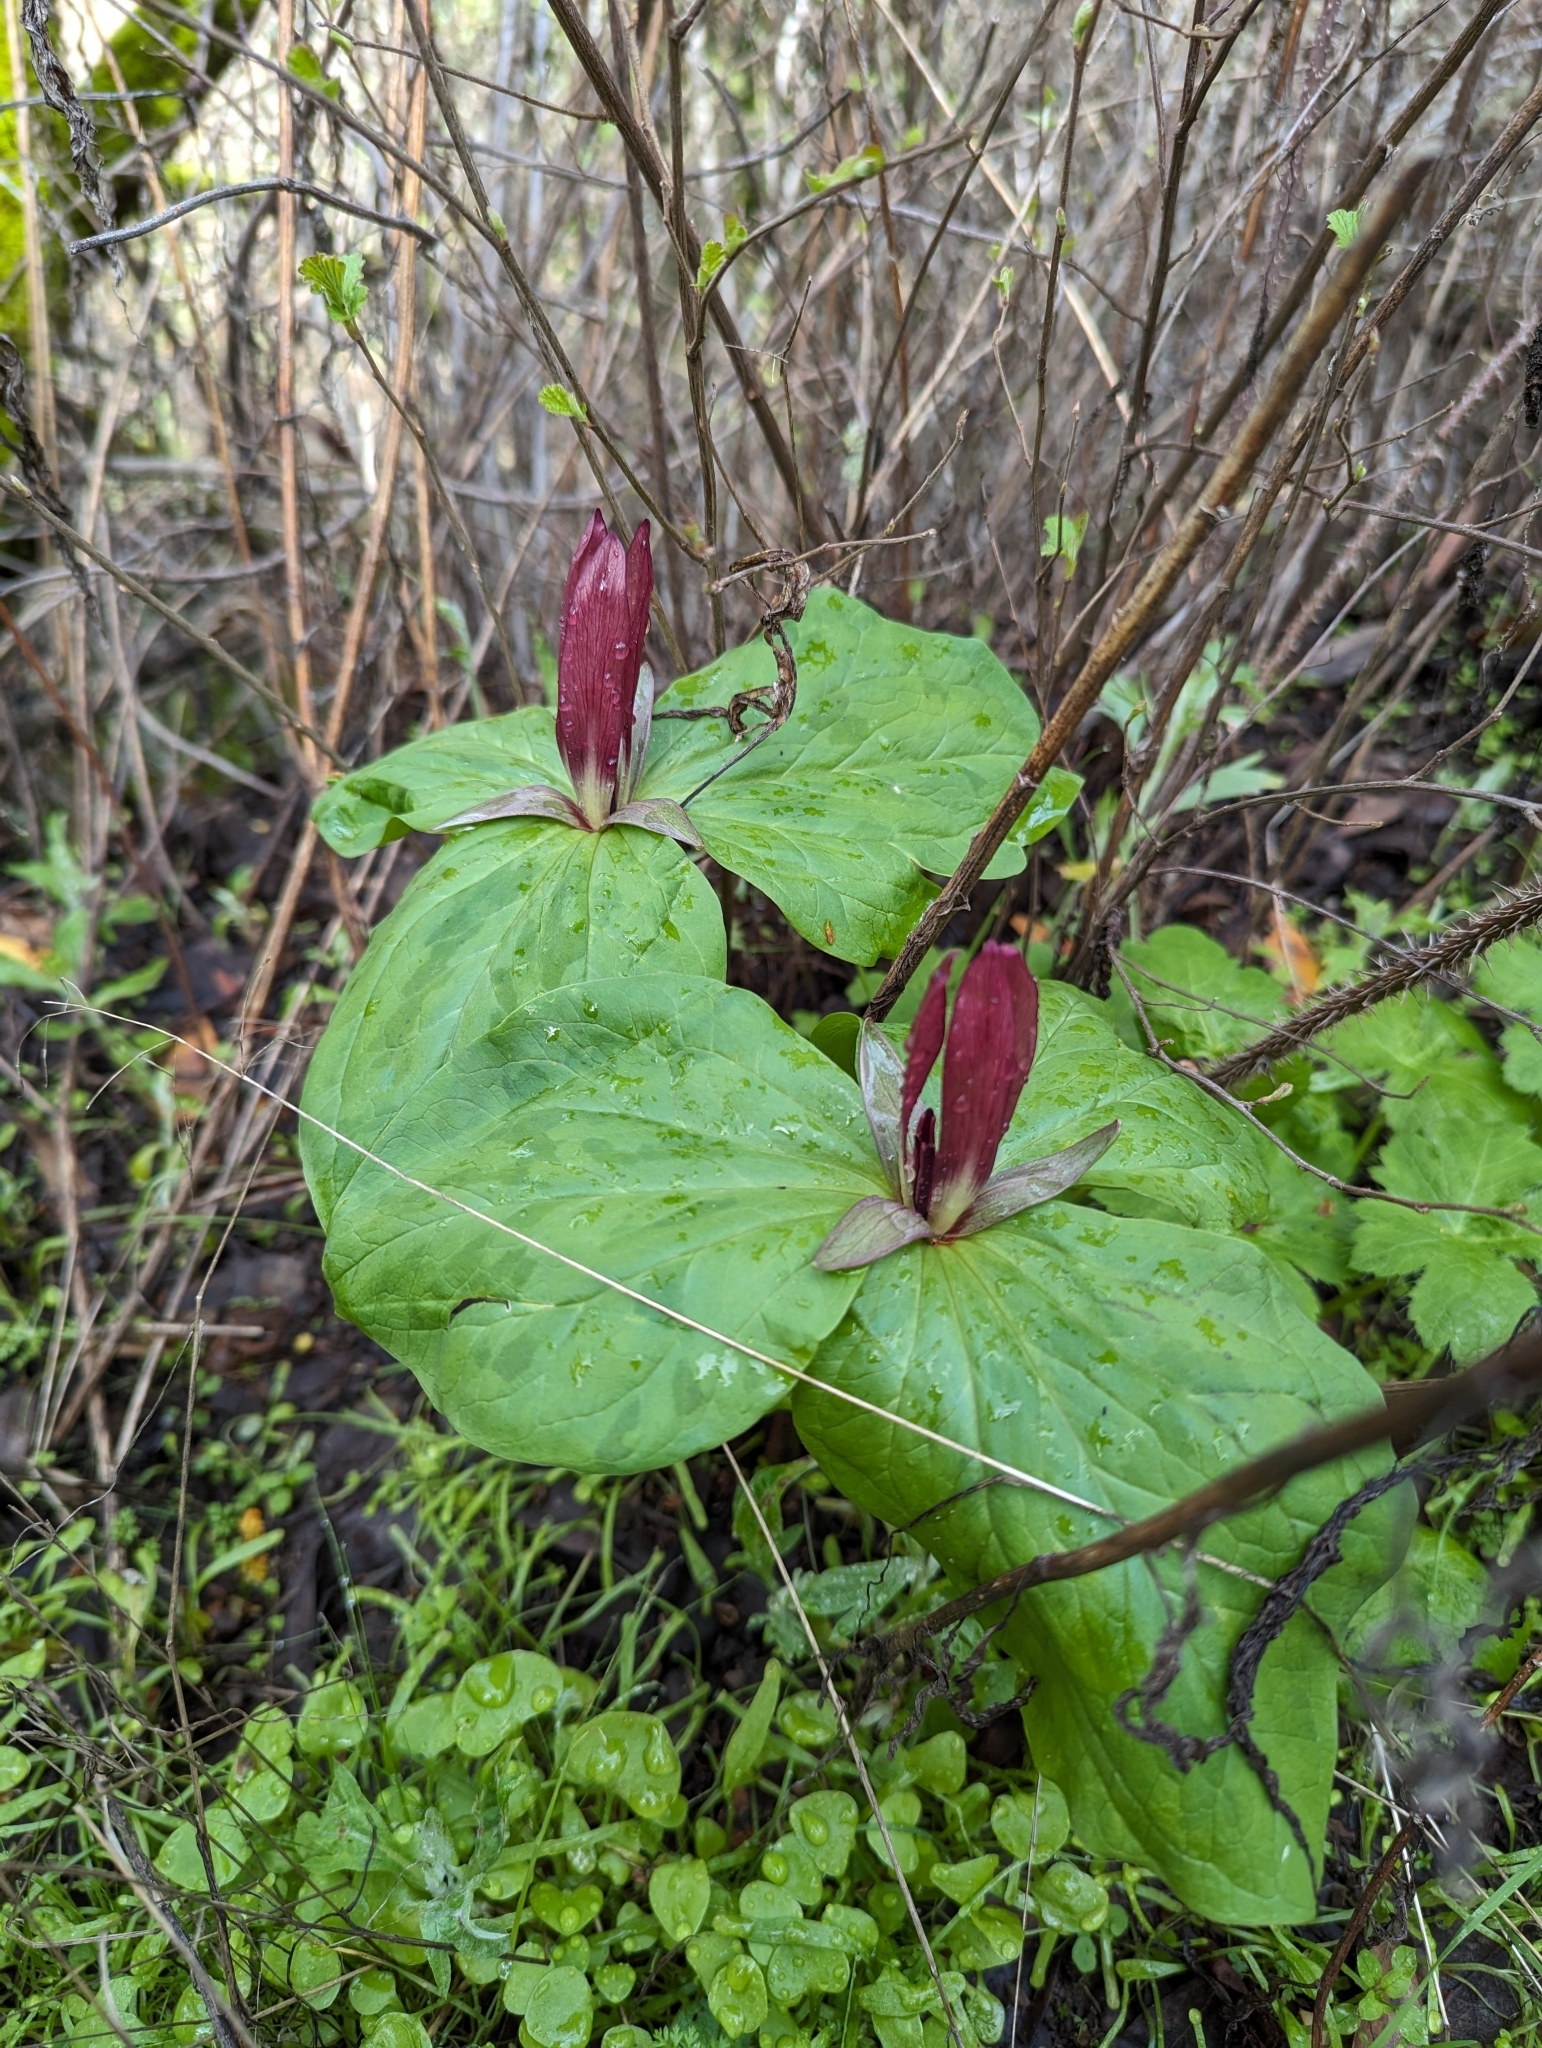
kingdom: Plantae
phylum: Tracheophyta
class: Liliopsida
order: Liliales
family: Melanthiaceae
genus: Trillium
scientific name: Trillium chloropetalum
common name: Giant trillium
